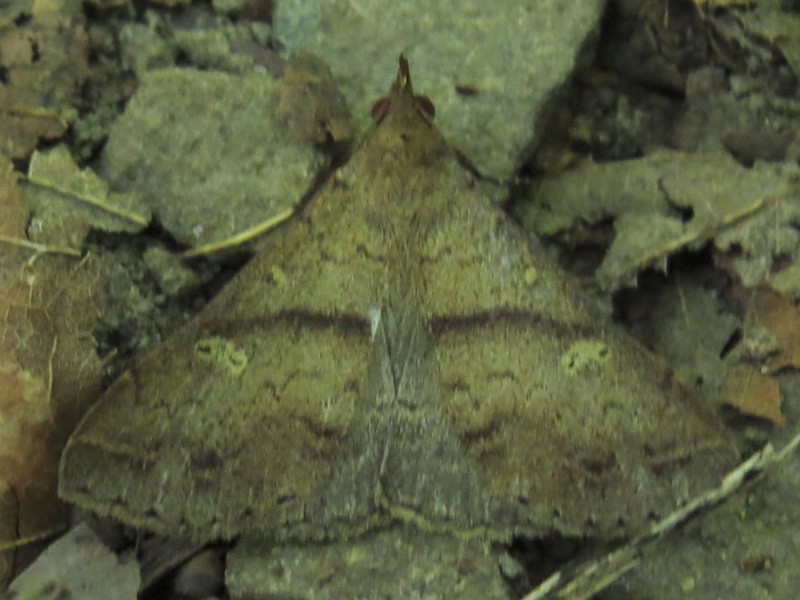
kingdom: Animalia
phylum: Arthropoda
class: Insecta
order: Lepidoptera
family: Erebidae
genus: Renia
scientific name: Renia discoloralis
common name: Discolored renia moth
